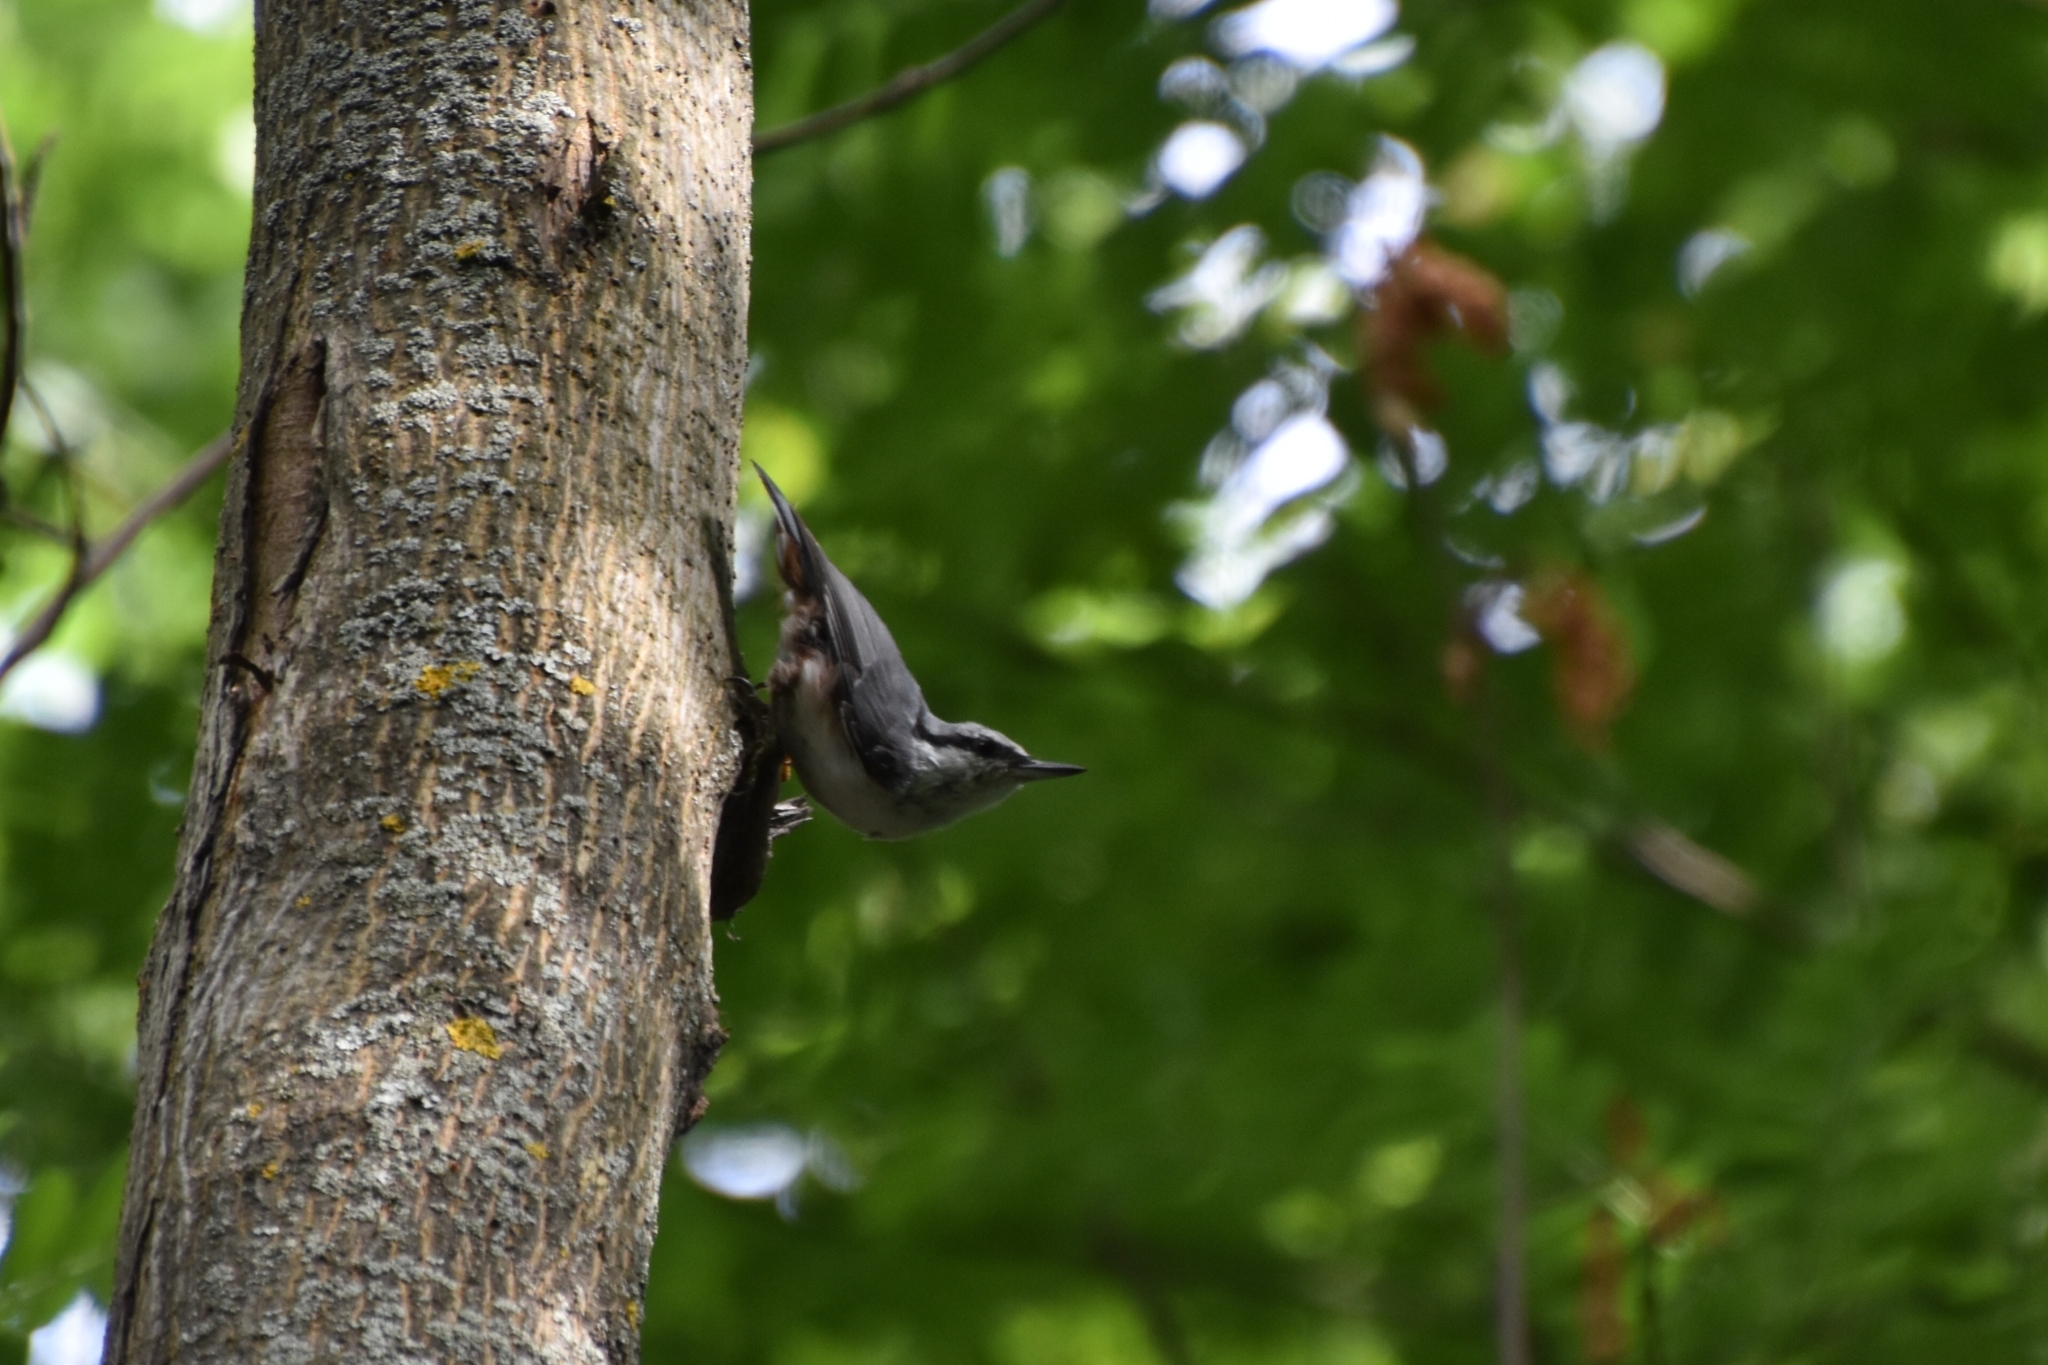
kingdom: Animalia
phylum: Chordata
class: Aves
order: Passeriformes
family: Sittidae
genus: Sitta
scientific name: Sitta europaea
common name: Eurasian nuthatch
